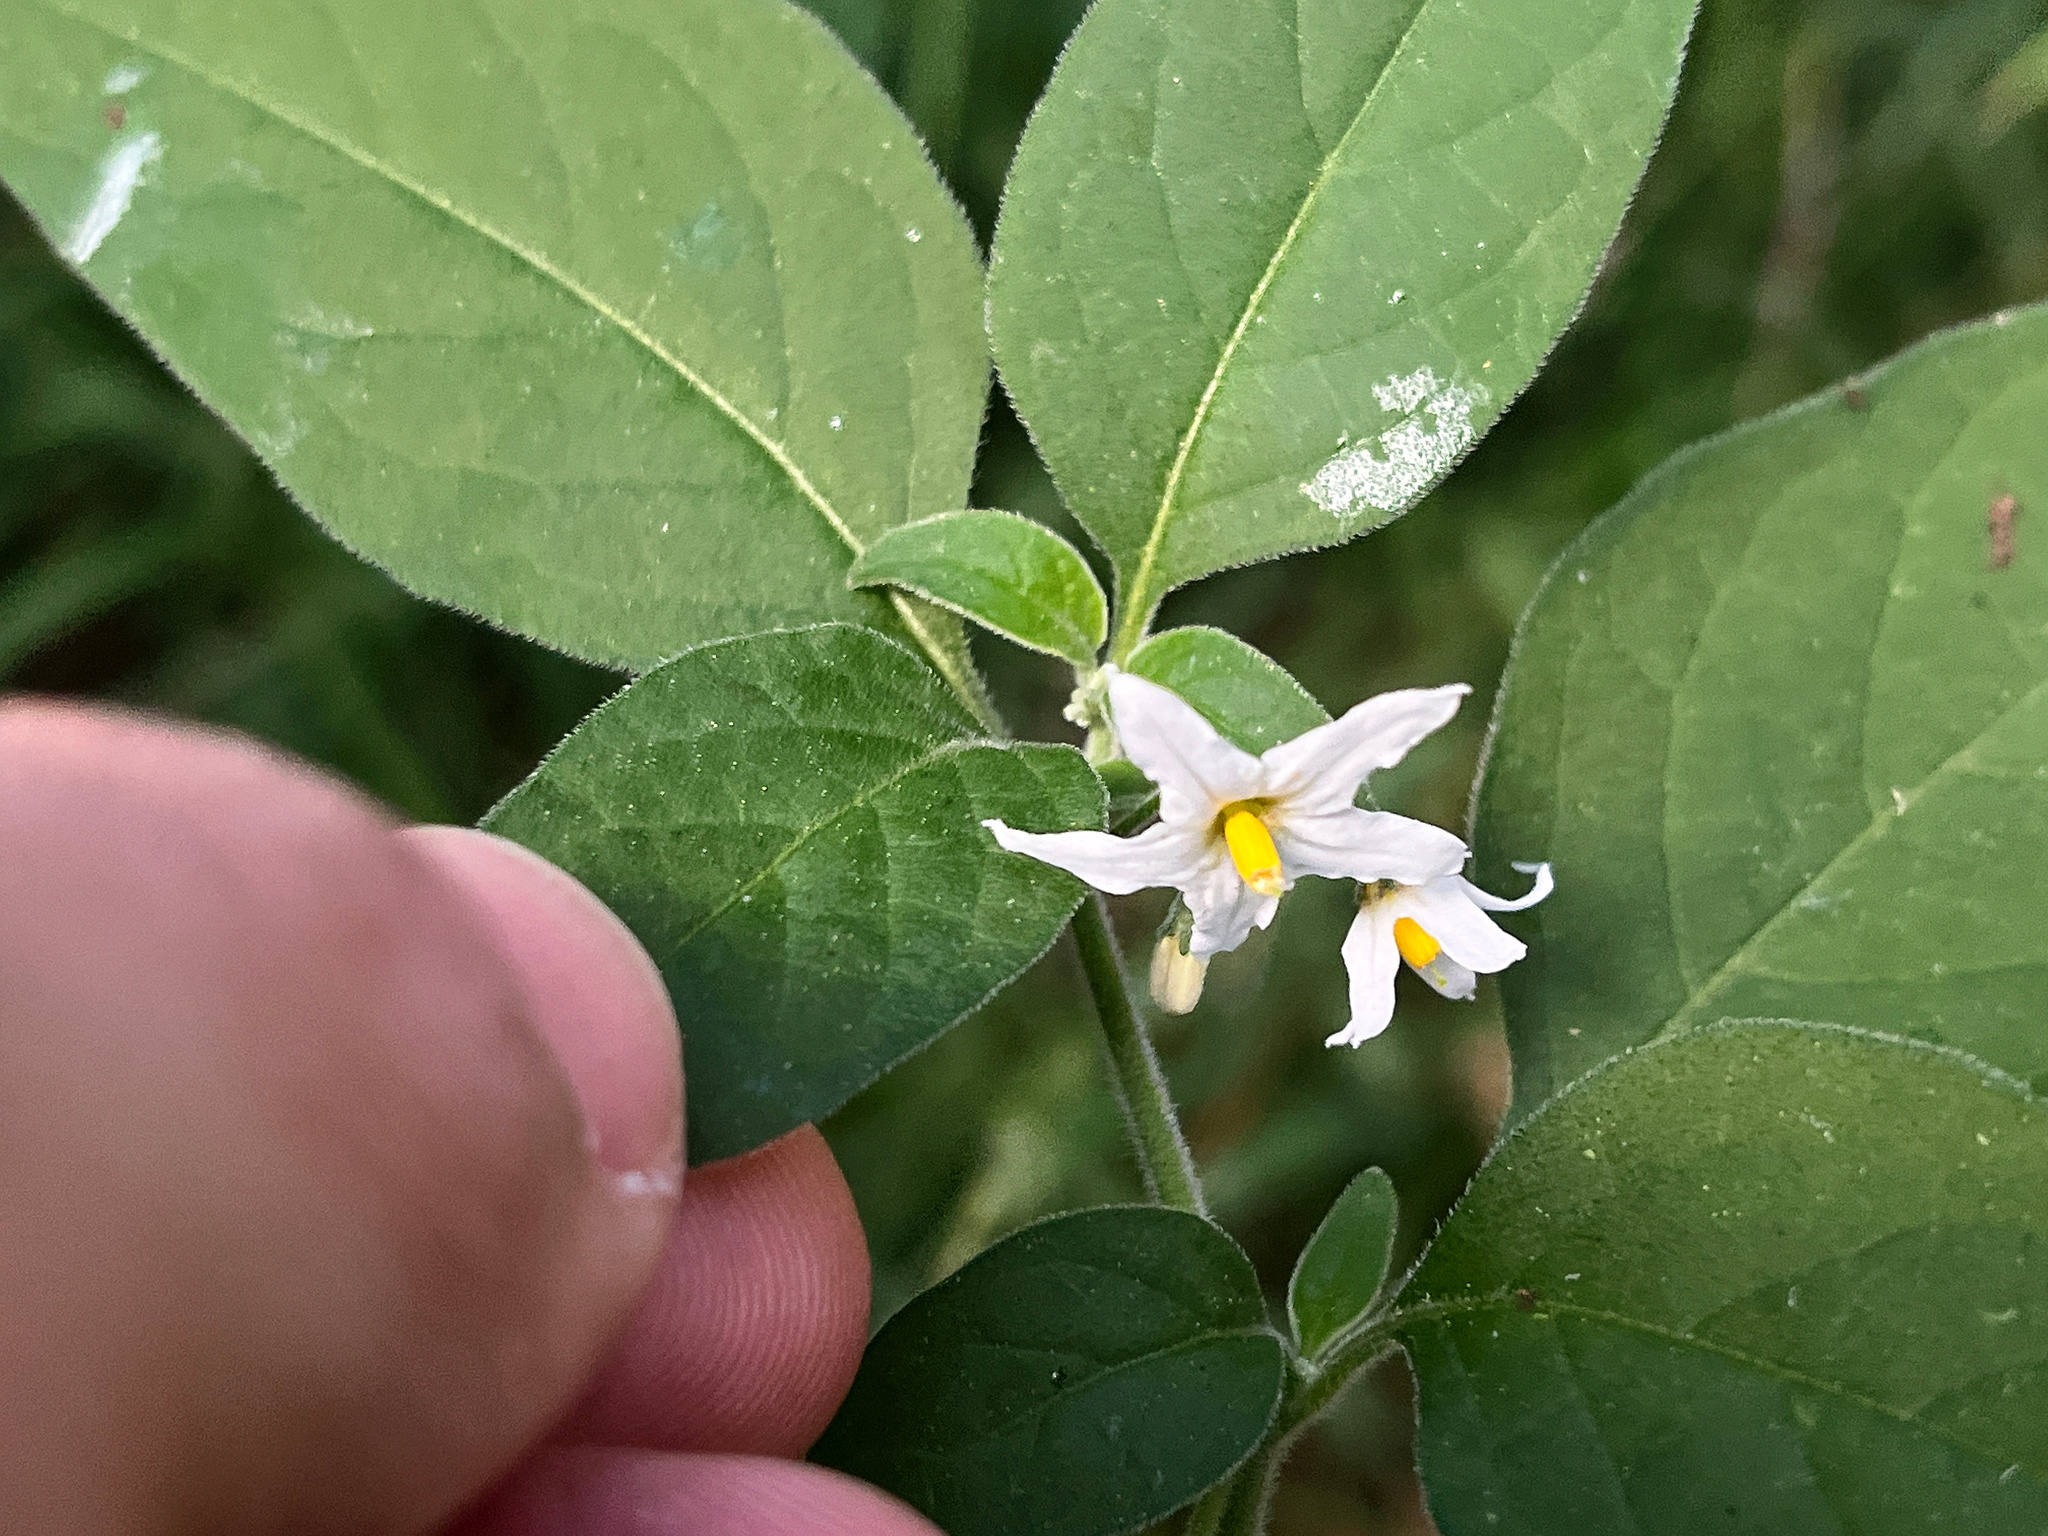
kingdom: Plantae
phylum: Tracheophyta
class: Magnoliopsida
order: Solanales
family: Solanaceae
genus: Solanum
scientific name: Solanum chenopodioides
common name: Tall nightshade
